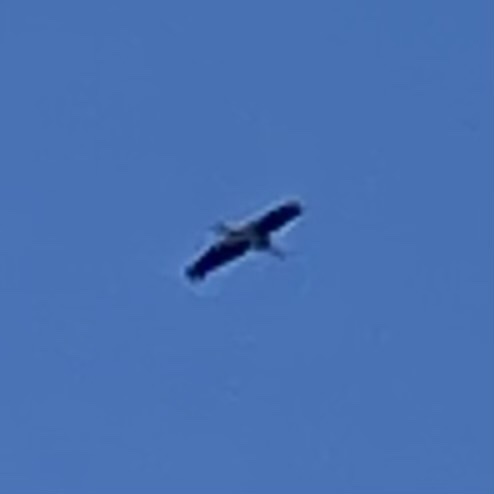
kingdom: Animalia
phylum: Chordata
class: Aves
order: Ciconiiformes
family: Ciconiidae
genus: Mycteria
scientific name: Mycteria americana
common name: Wood stork
